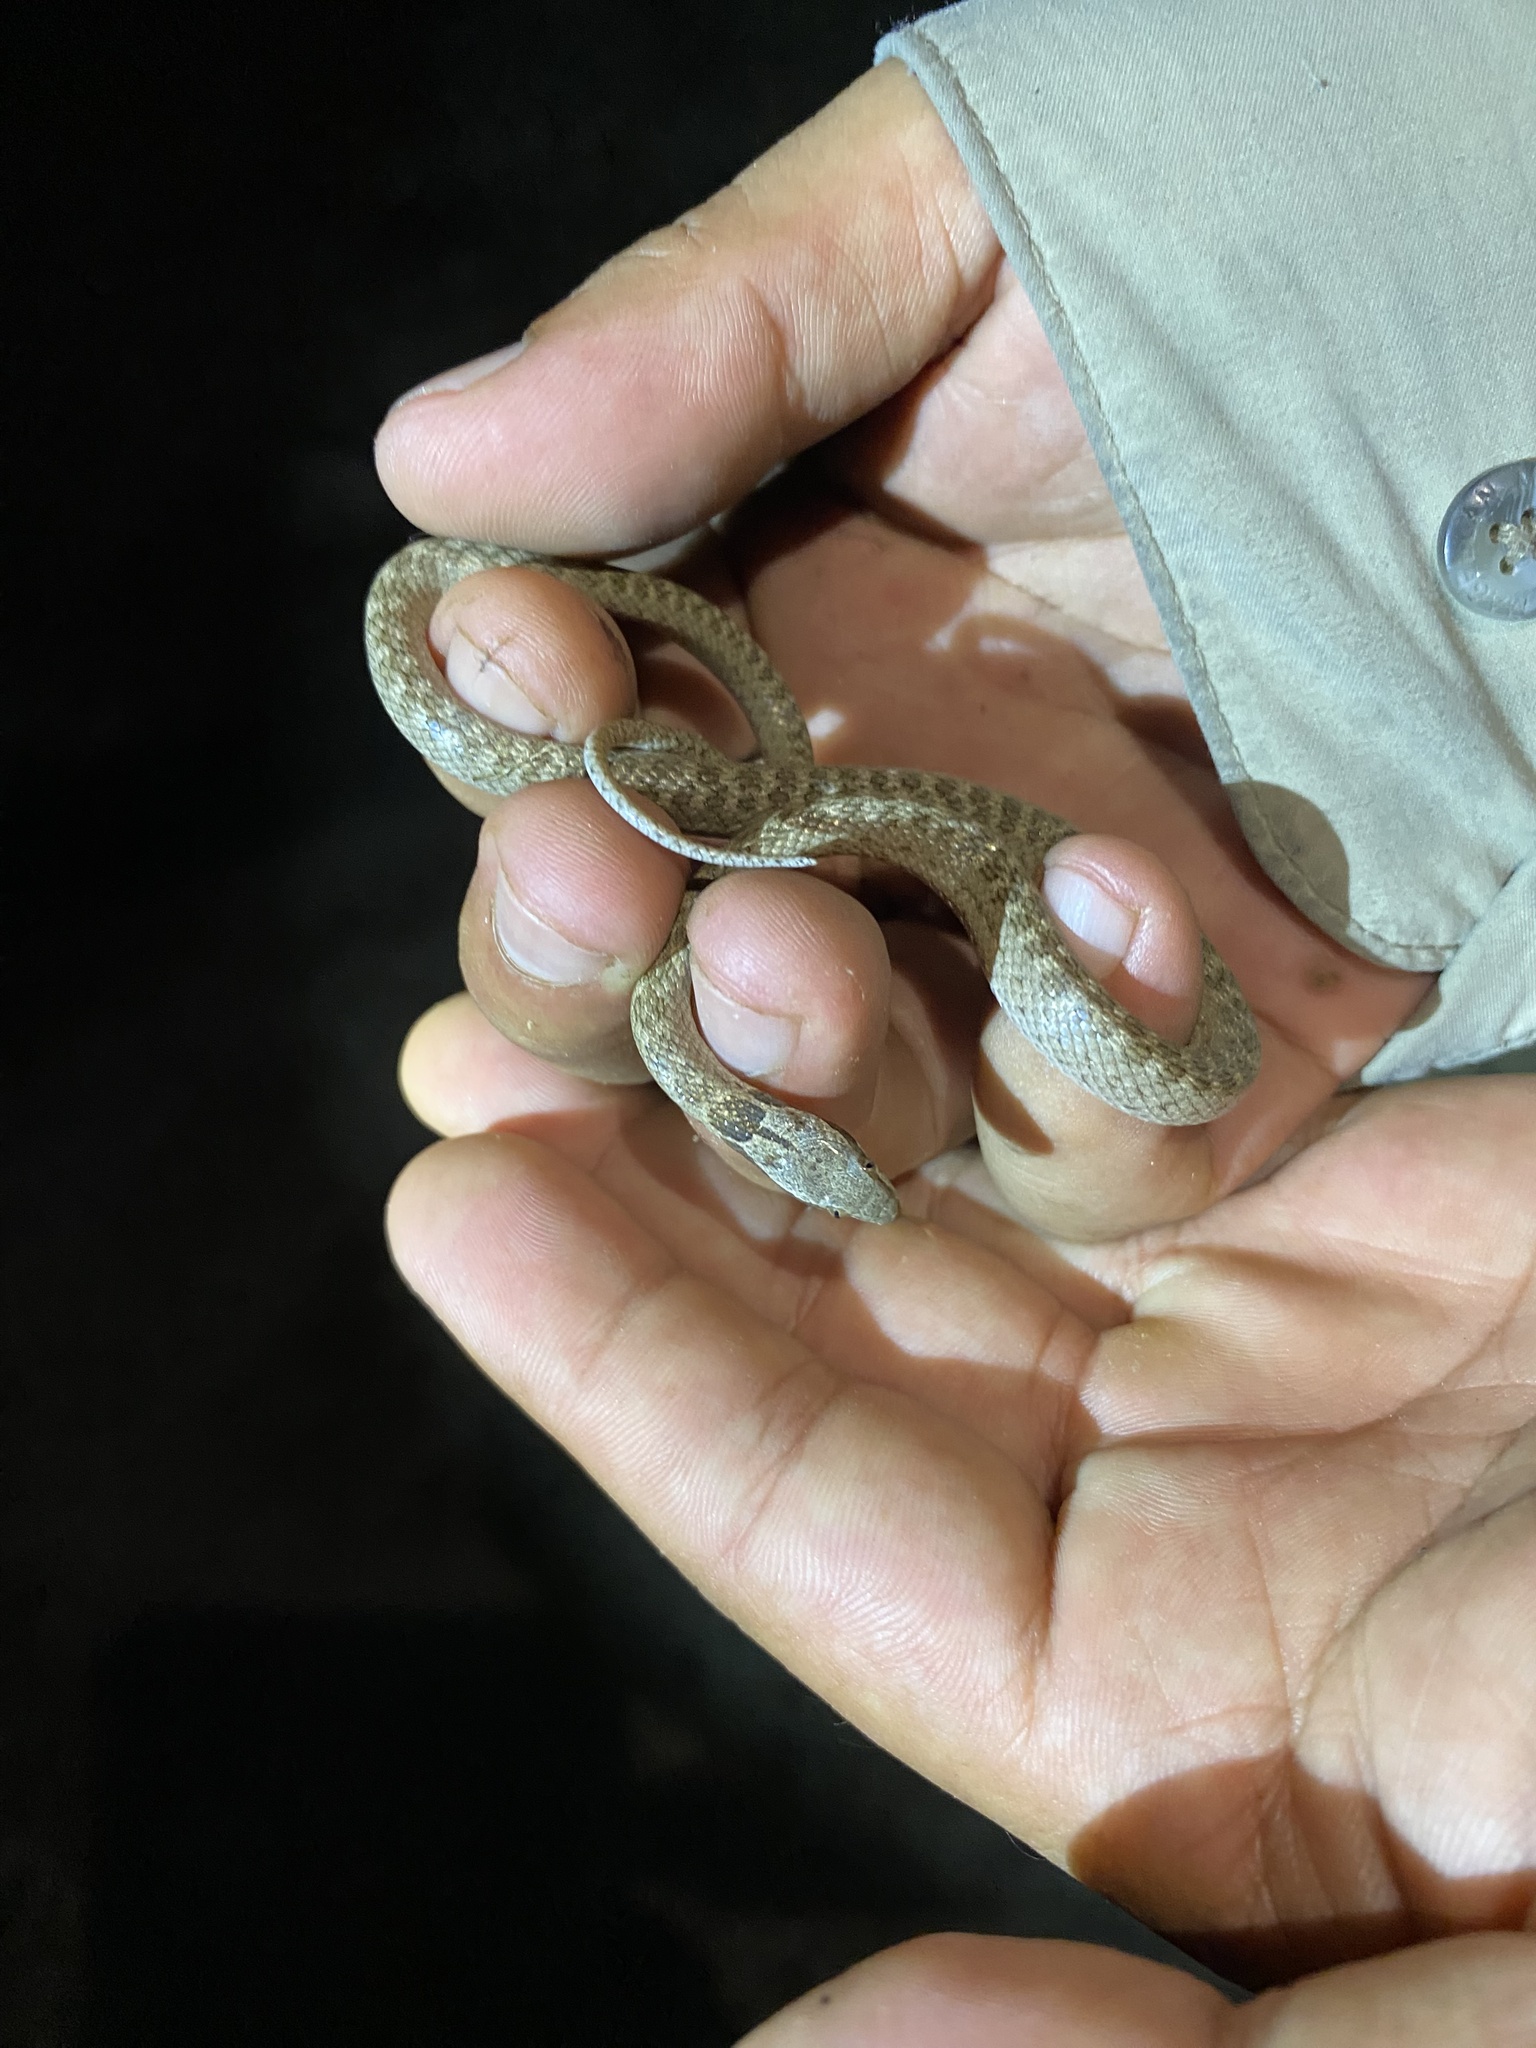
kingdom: Animalia
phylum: Chordata
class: Squamata
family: Colubridae
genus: Hypsiglena
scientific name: Hypsiglena chlorophaea
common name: Desert nightsnake
